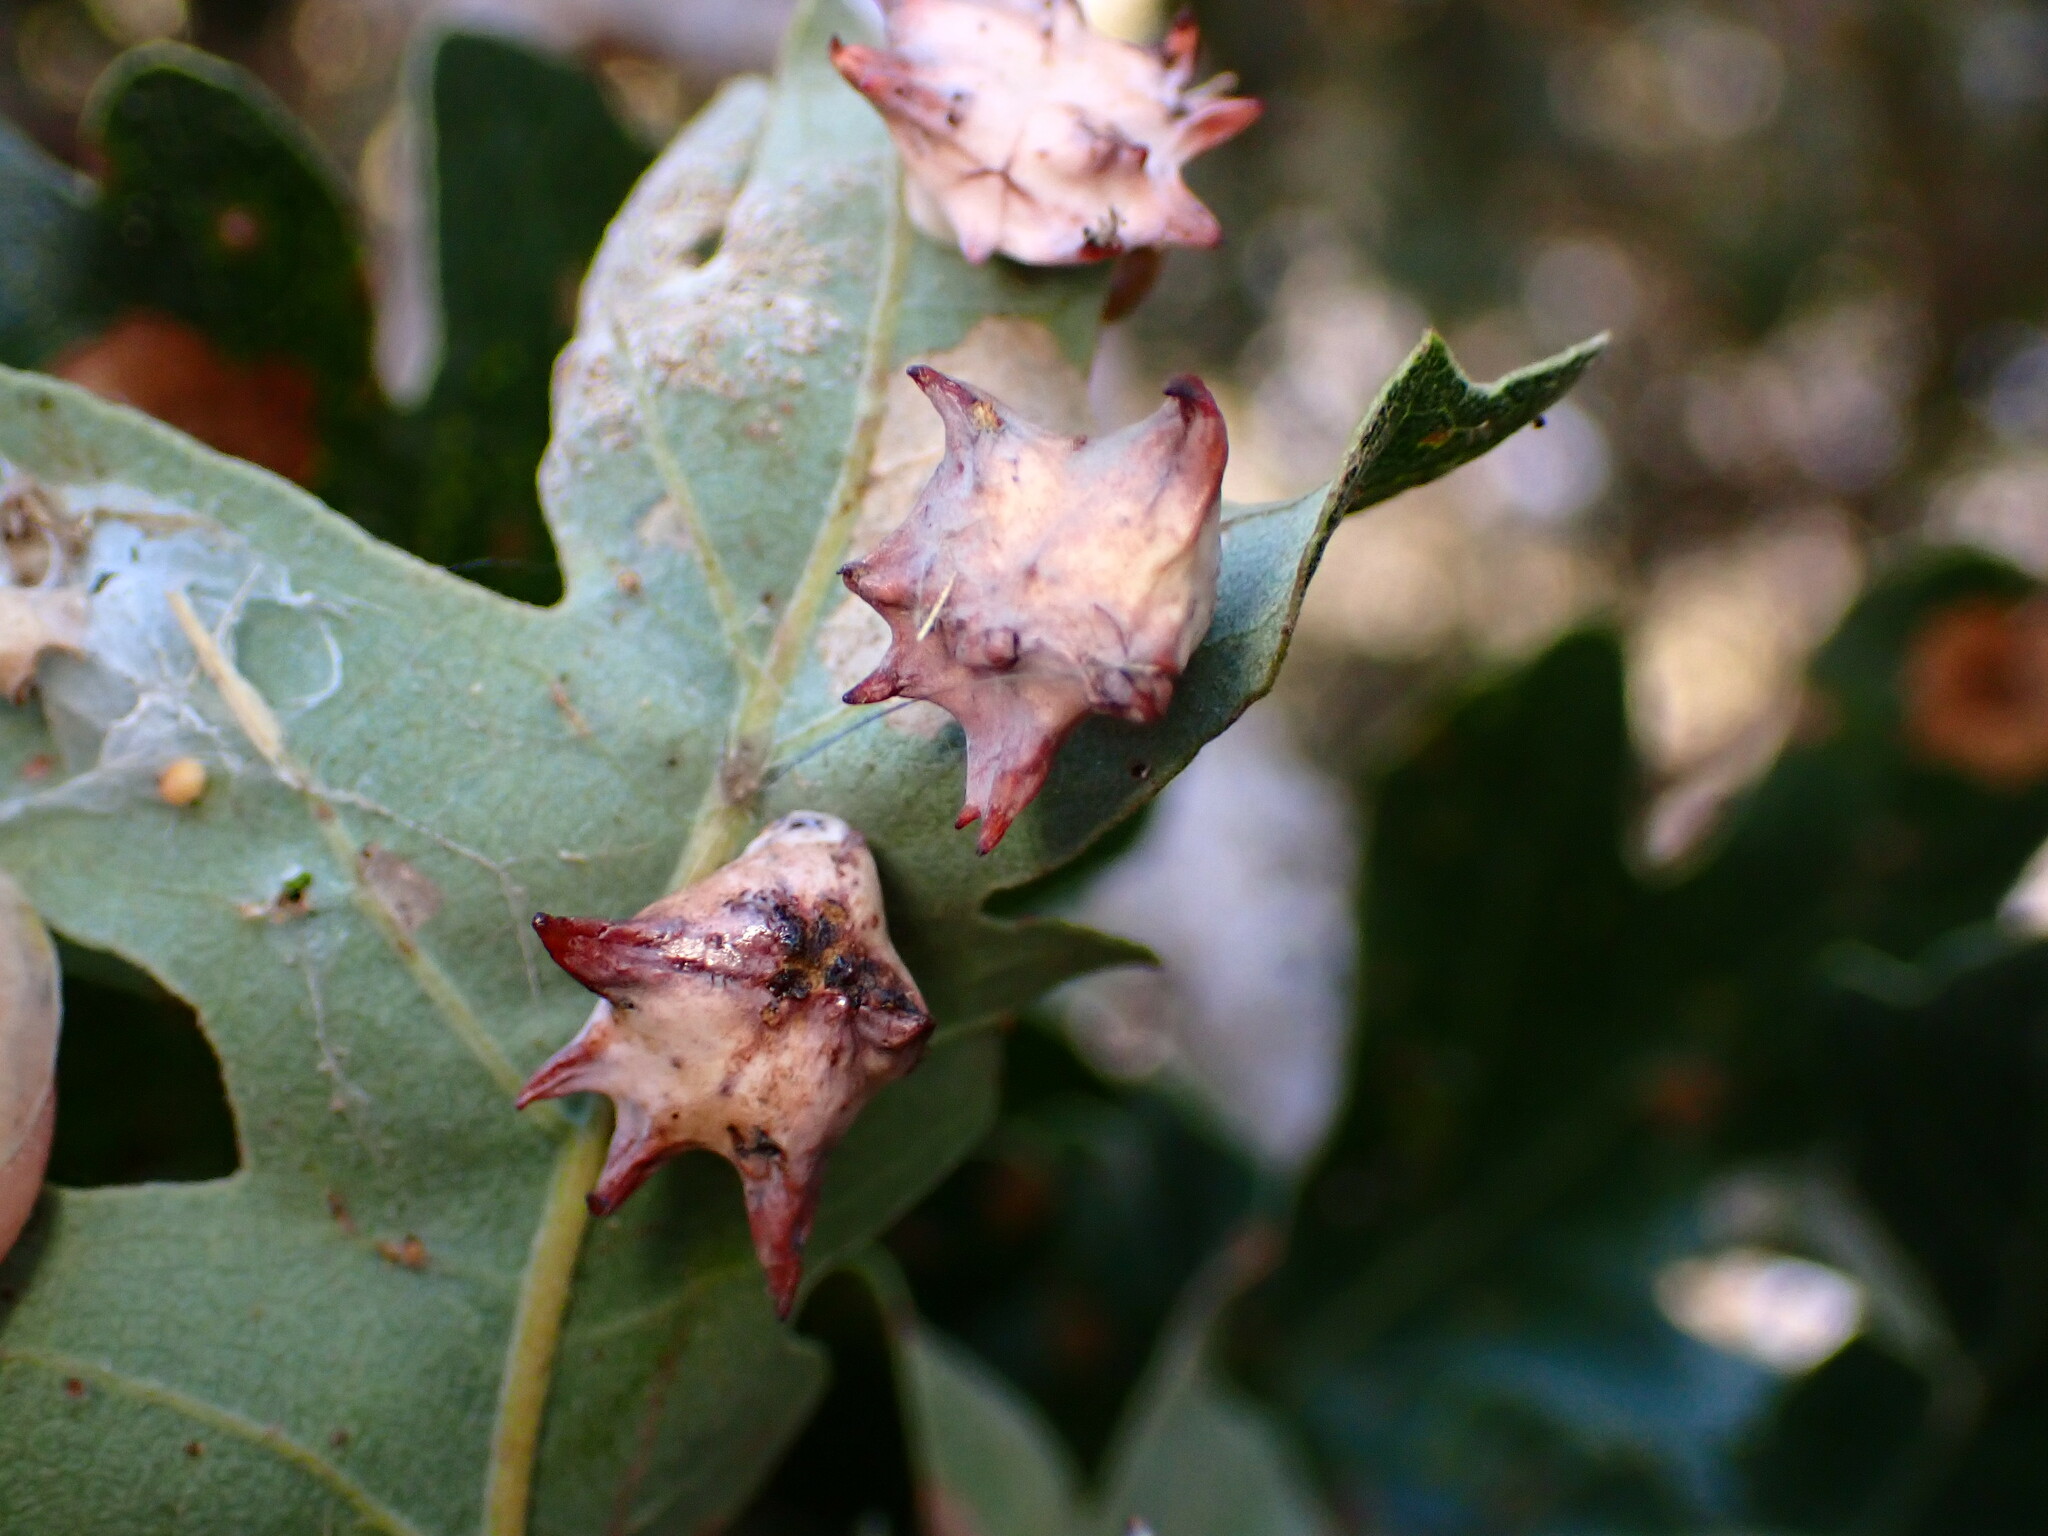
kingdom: Animalia
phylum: Arthropoda
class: Insecta
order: Hymenoptera
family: Cynipidae
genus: Cynips
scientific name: Cynips douglasi
